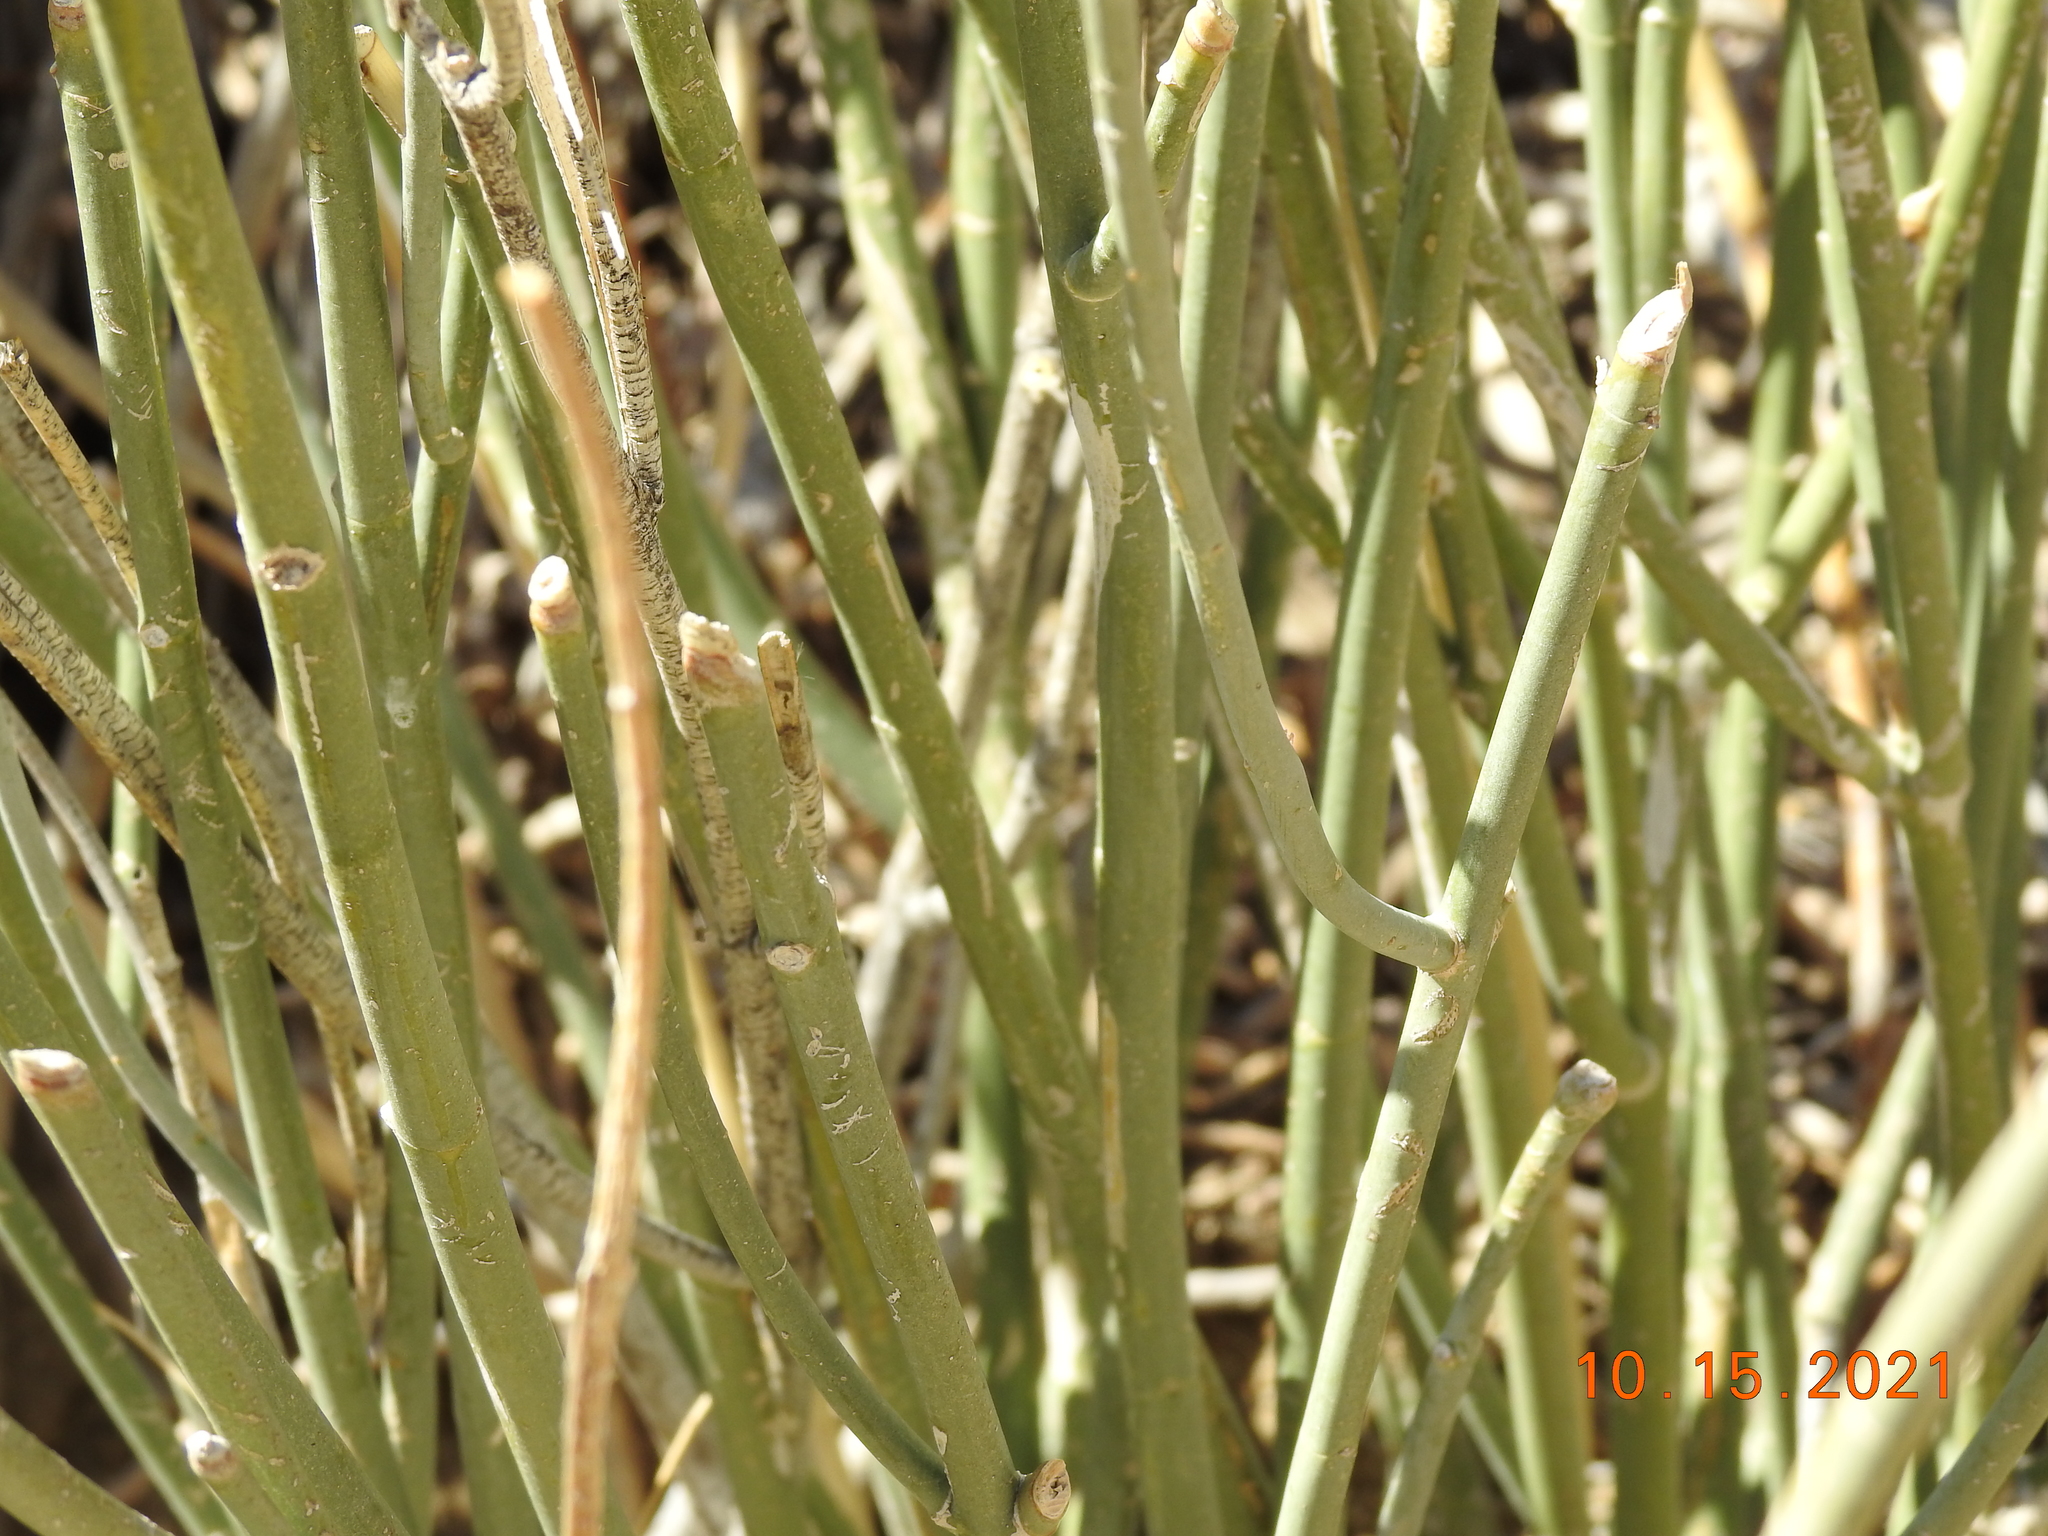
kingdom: Plantae
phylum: Tracheophyta
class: Magnoliopsida
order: Gentianales
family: Apocynaceae
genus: Asclepias
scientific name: Asclepias subulata
